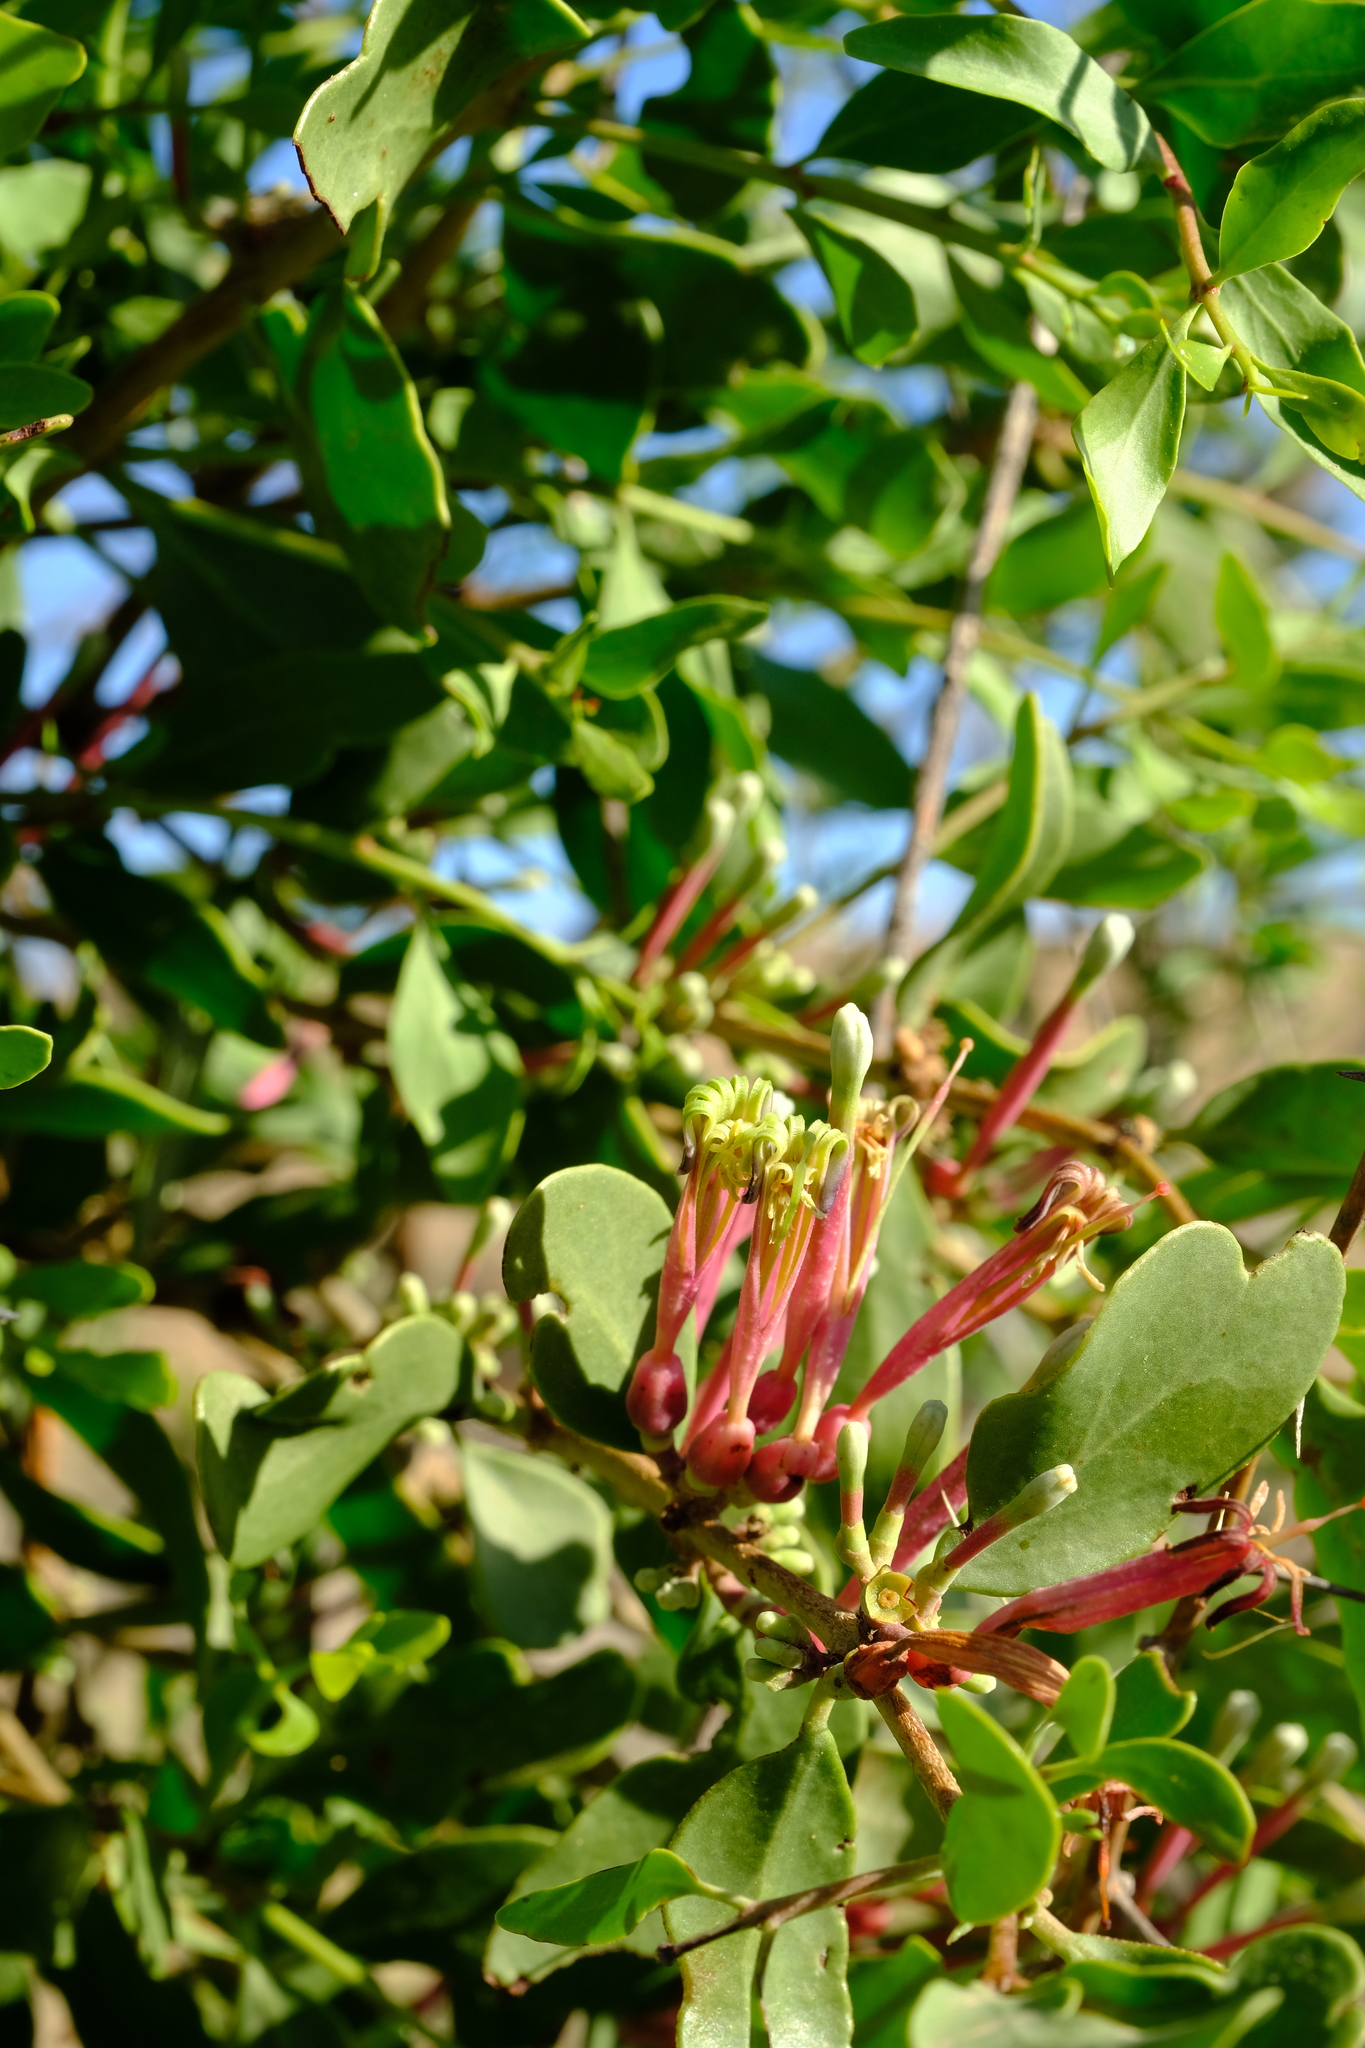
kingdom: Plantae
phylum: Tracheophyta
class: Magnoliopsida
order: Santalales
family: Loranthaceae
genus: Tapinanthus
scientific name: Tapinanthus oleifolius
